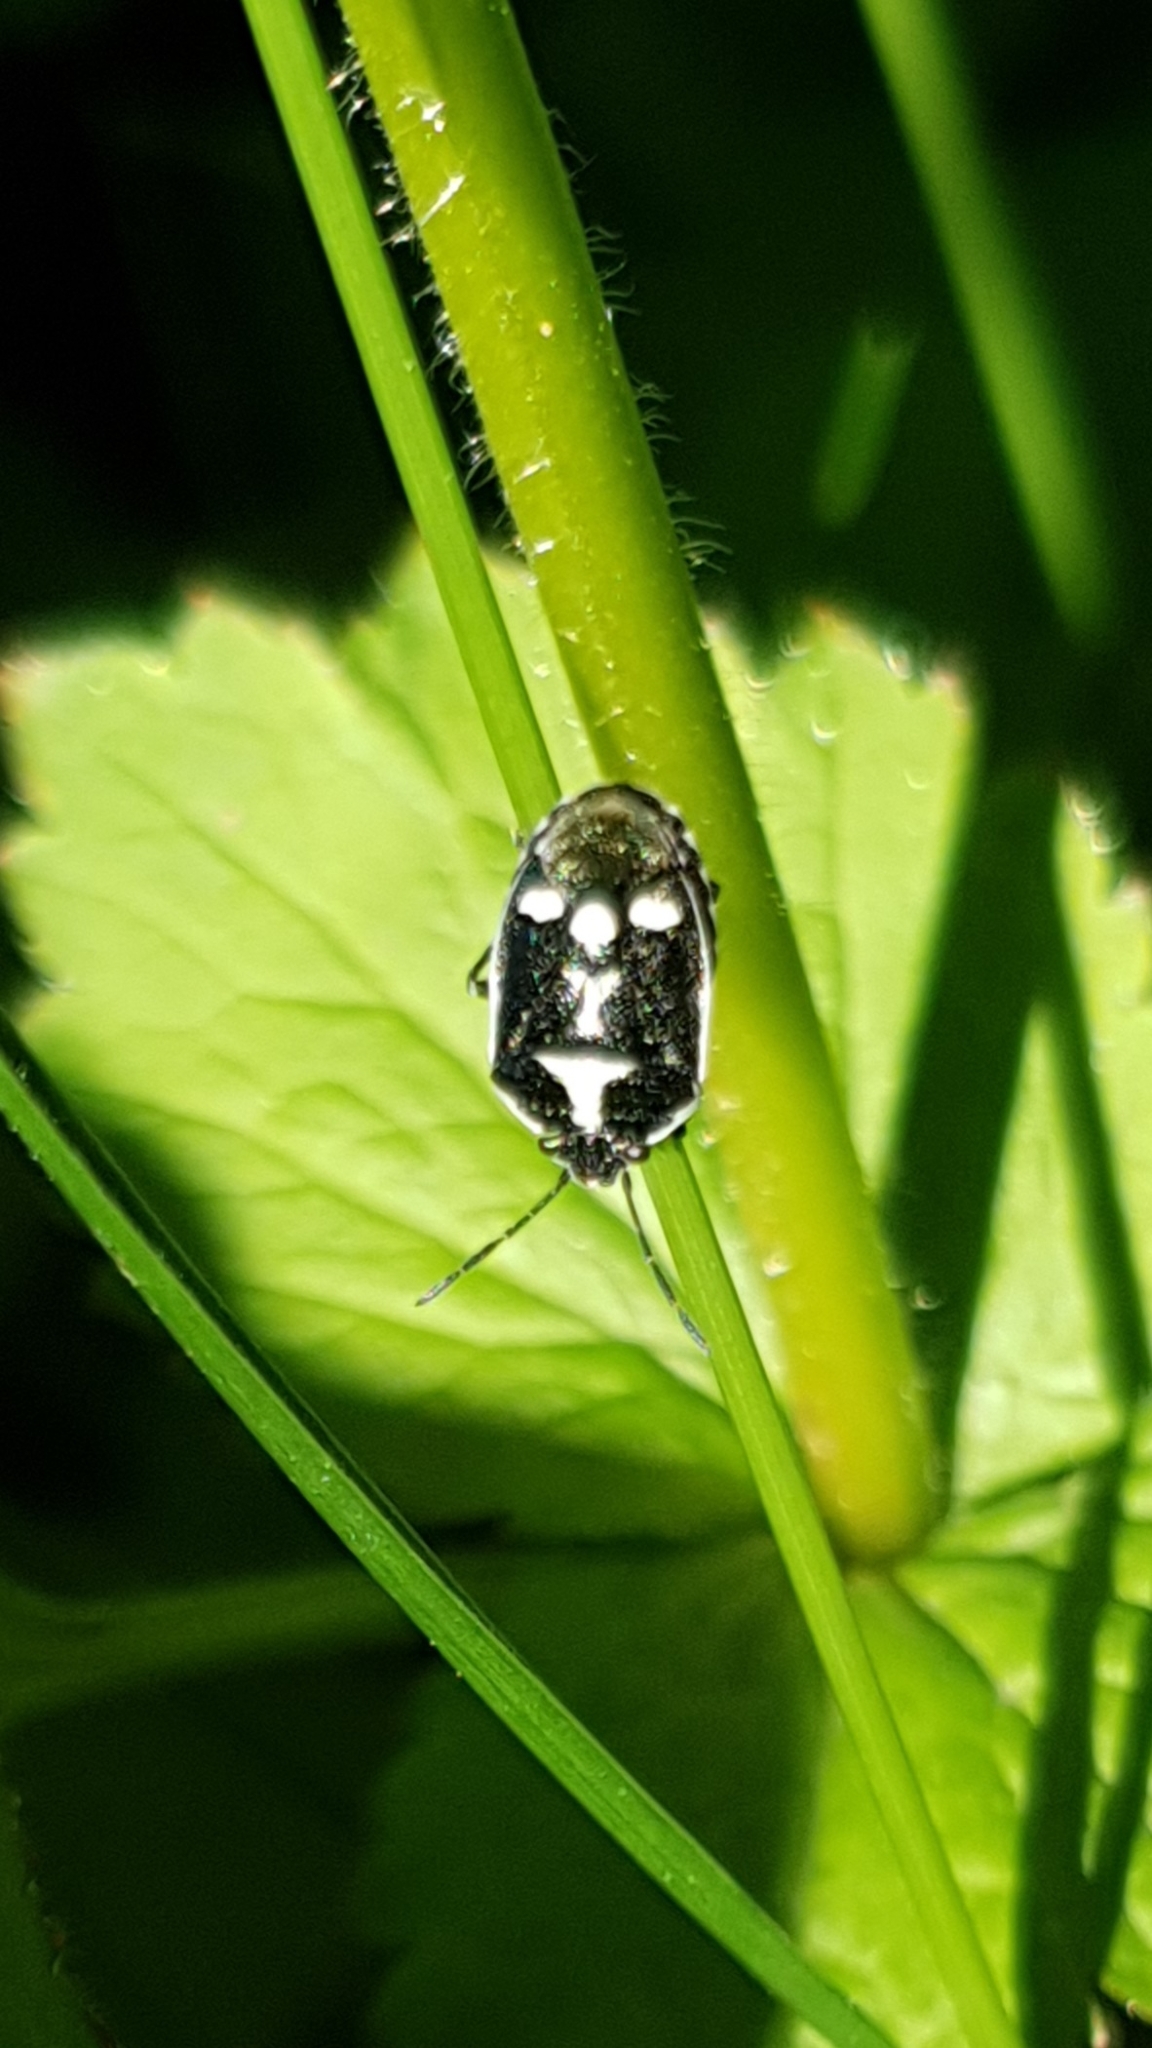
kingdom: Animalia
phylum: Arthropoda
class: Insecta
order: Hemiptera
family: Pentatomidae
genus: Eurydema
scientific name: Eurydema oleracea
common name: Cabbage bug
